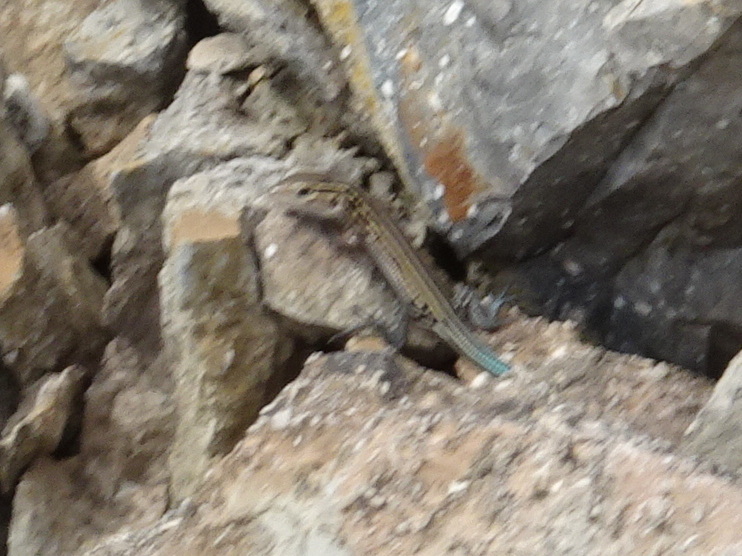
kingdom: Animalia
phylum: Chordata
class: Squamata
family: Teiidae
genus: Aspidoscelis
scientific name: Aspidoscelis sexlineatus
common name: Six-lined racerunner
